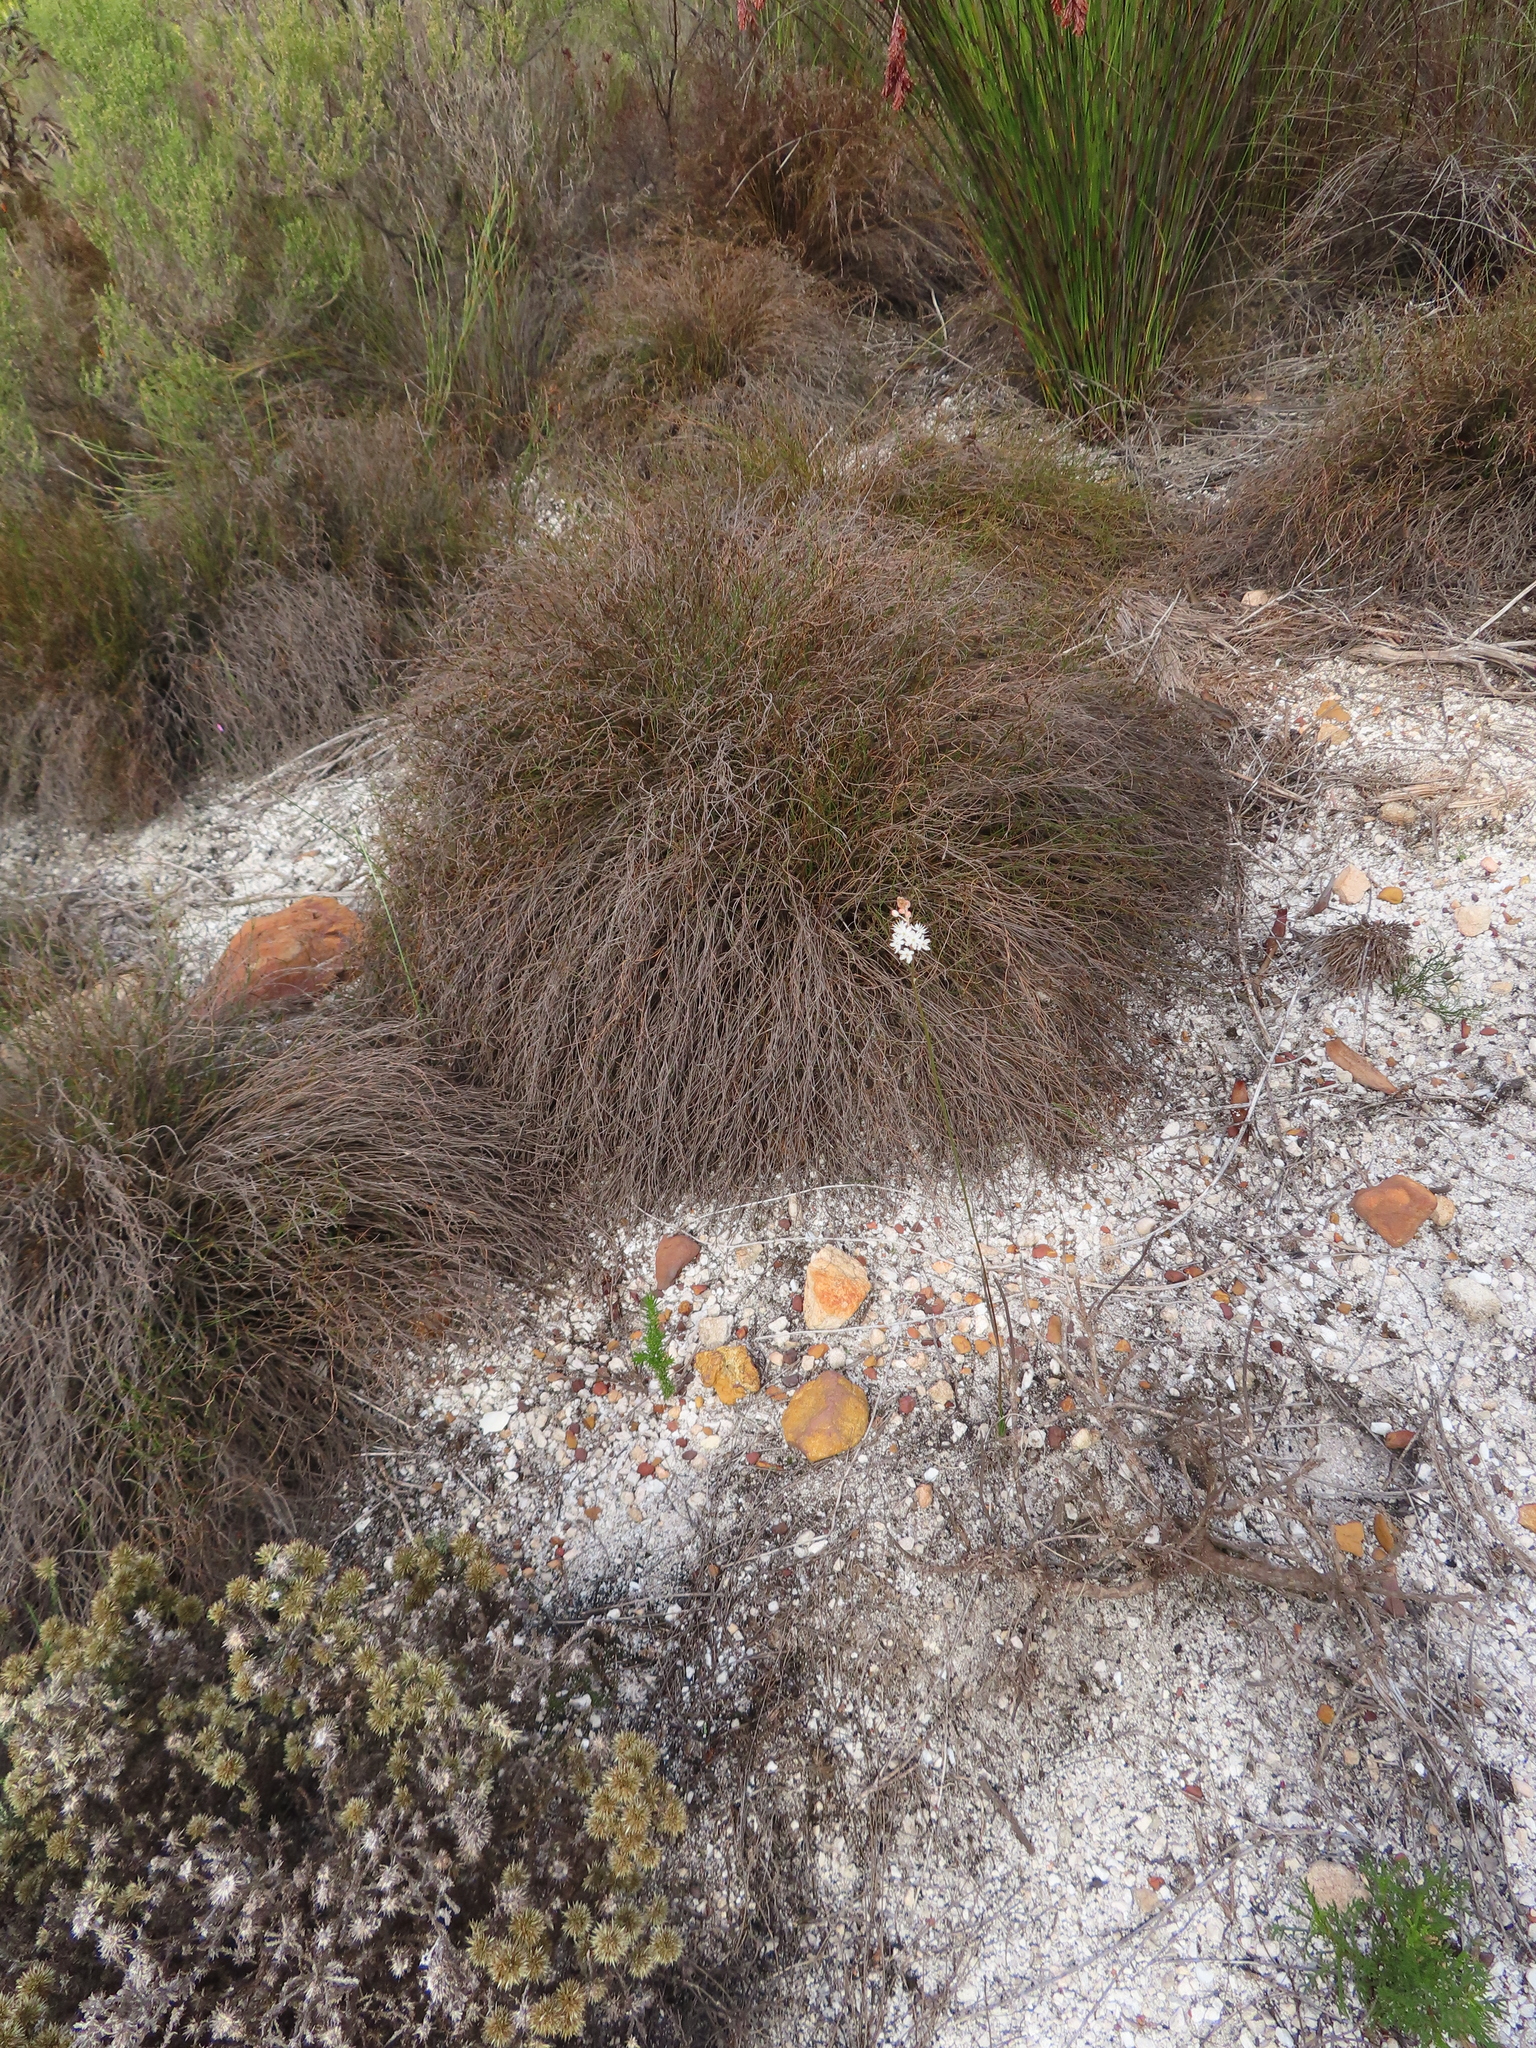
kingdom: Plantae
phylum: Tracheophyta
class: Liliopsida
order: Asparagales
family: Asphodelaceae
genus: Bulbinella
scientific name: Bulbinella trinervis
